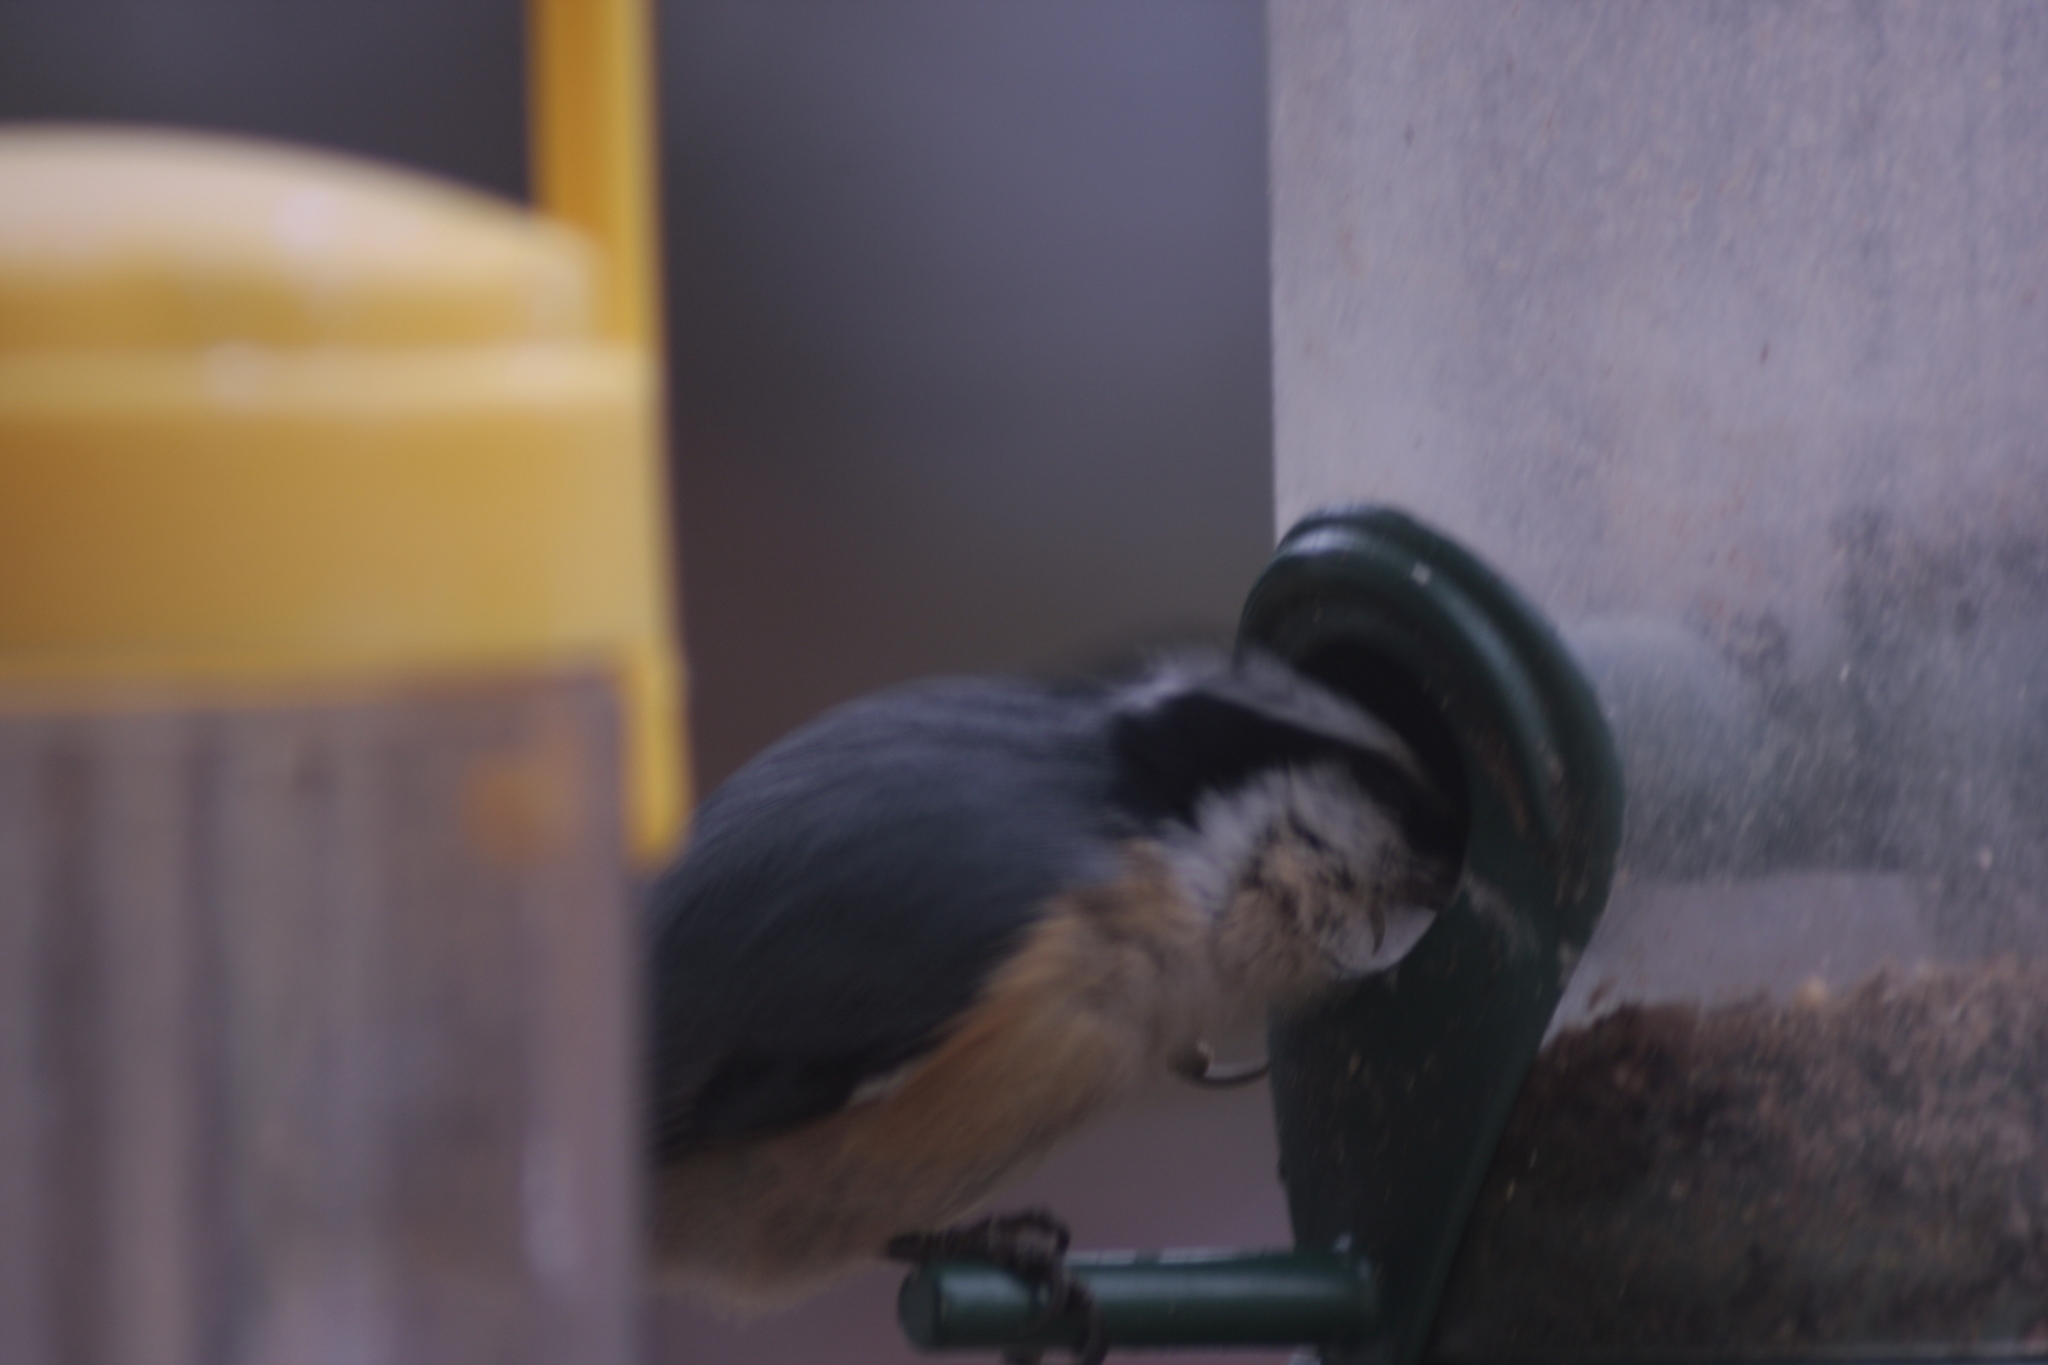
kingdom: Animalia
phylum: Chordata
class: Aves
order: Passeriformes
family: Sittidae
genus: Sitta
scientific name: Sitta canadensis
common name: Red-breasted nuthatch
